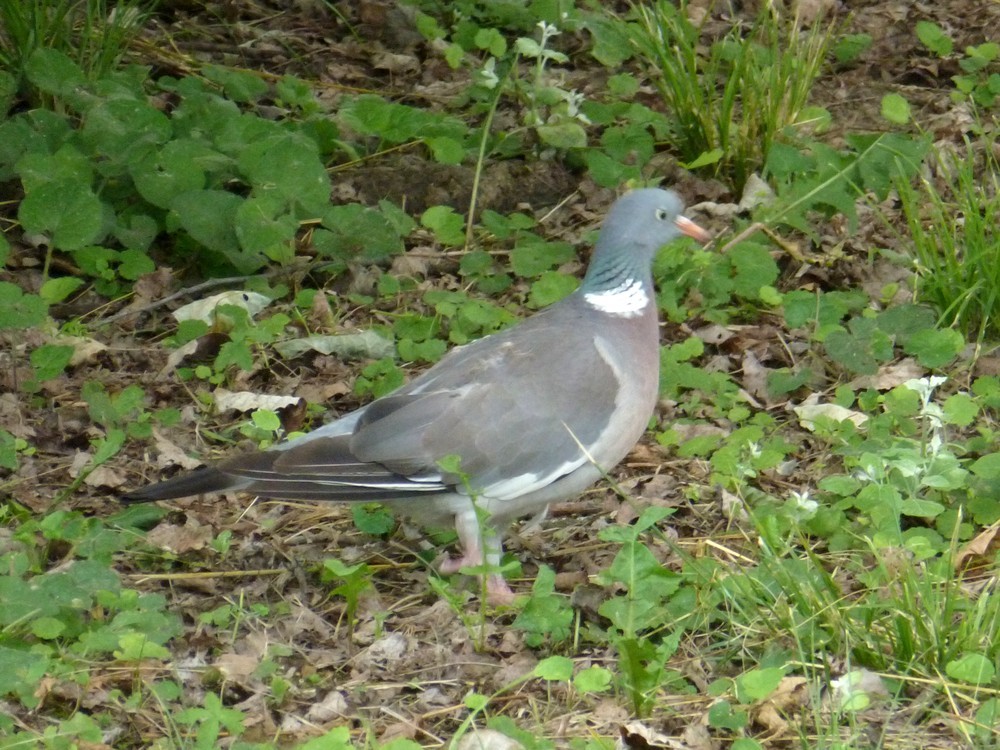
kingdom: Animalia
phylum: Chordata
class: Aves
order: Columbiformes
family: Columbidae
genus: Columba
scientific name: Columba palumbus
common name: Common wood pigeon
